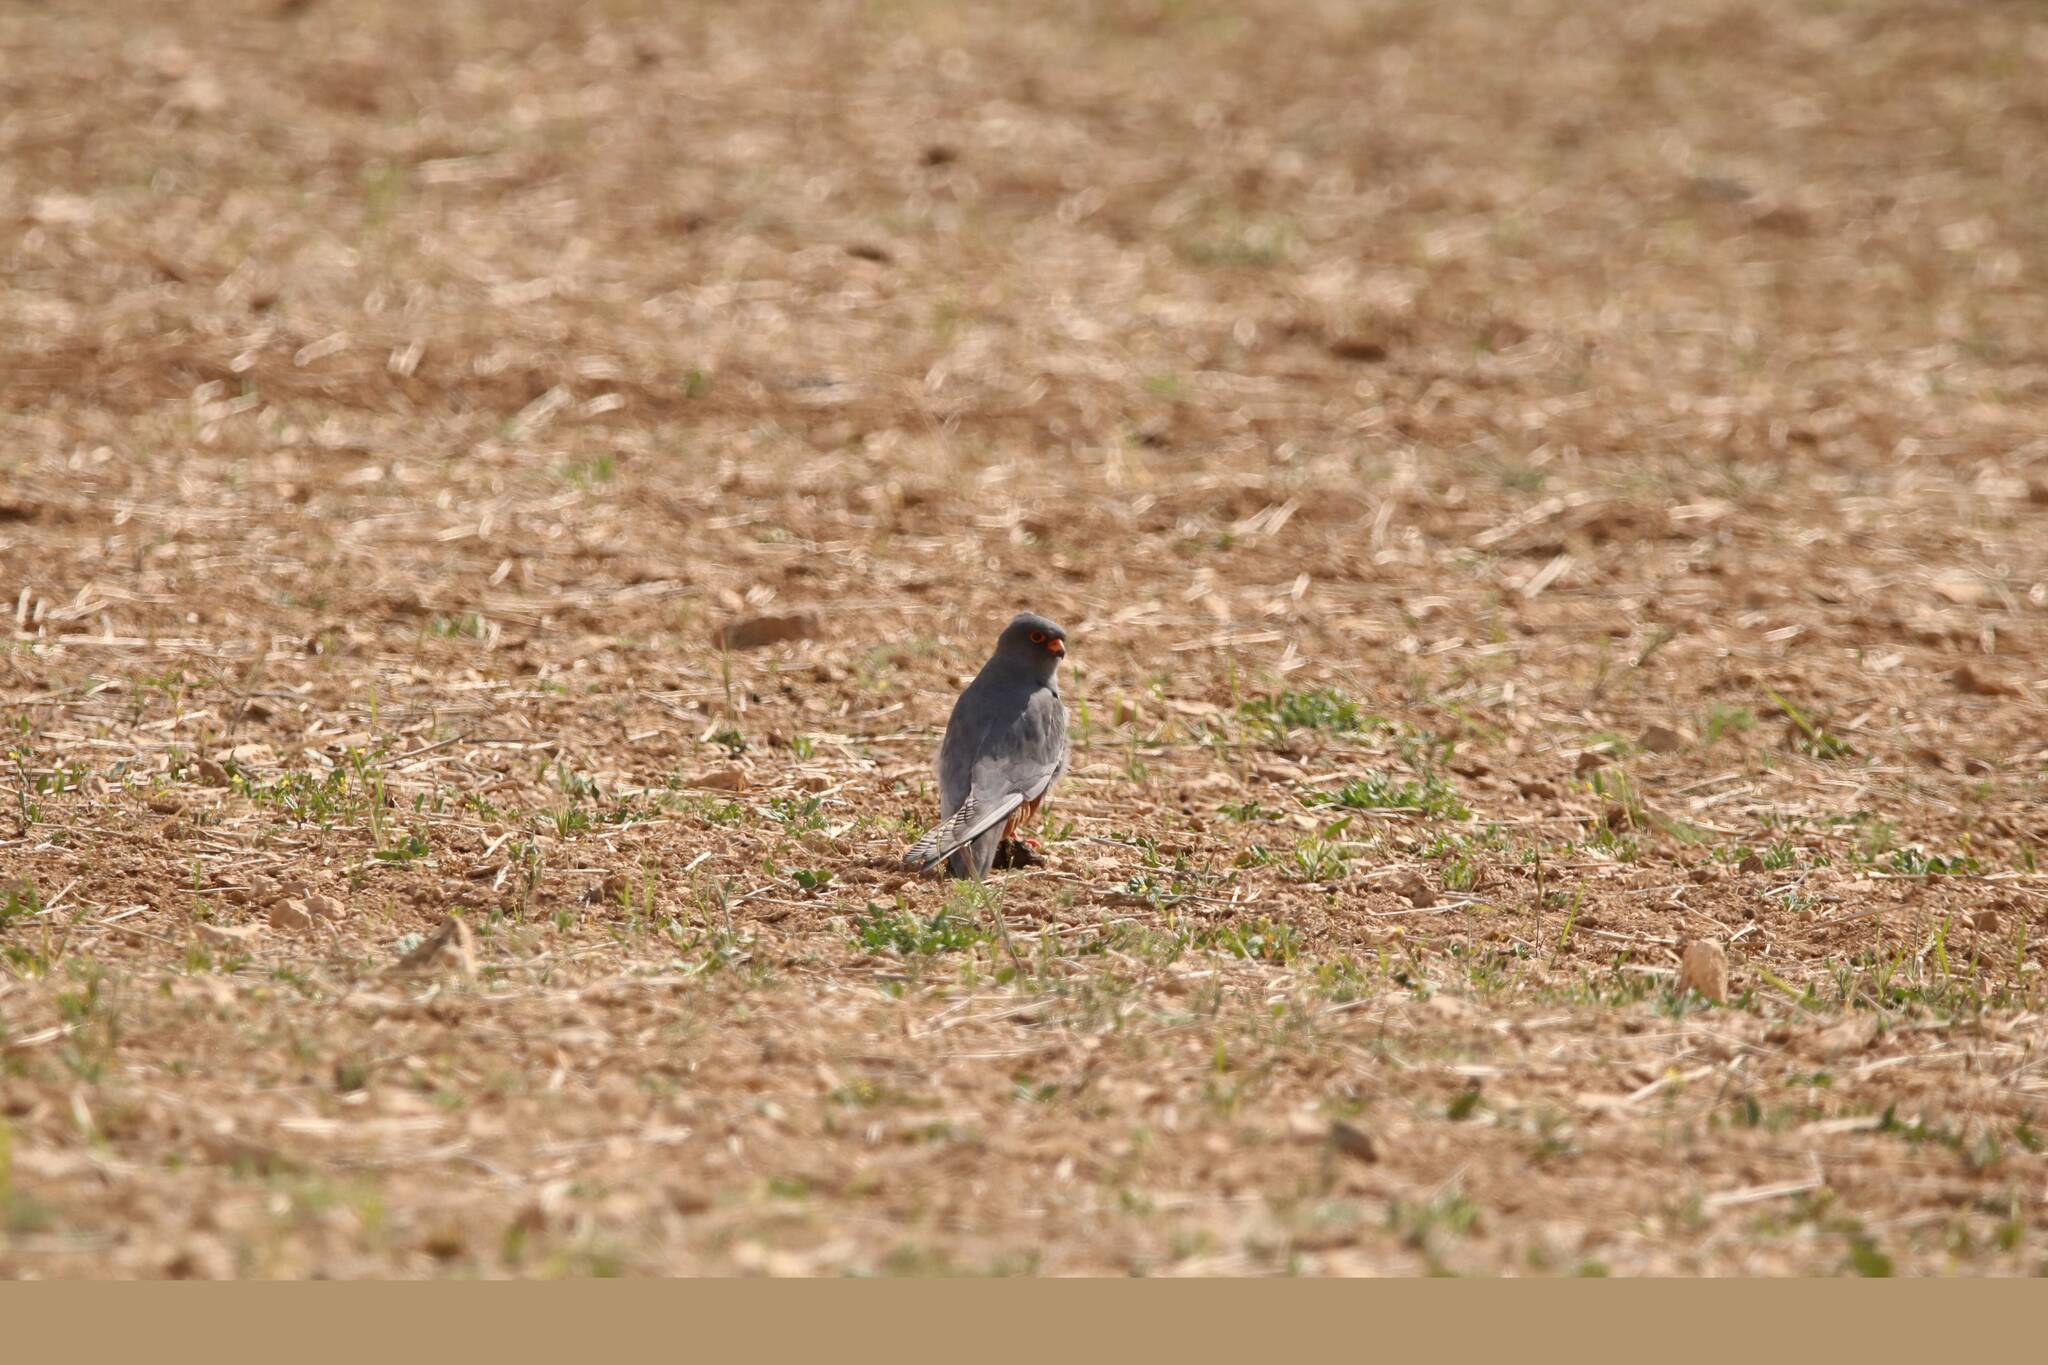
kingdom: Animalia
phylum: Chordata
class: Aves
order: Falconiformes
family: Falconidae
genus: Falco
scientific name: Falco vespertinus
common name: Red-footed falcon
